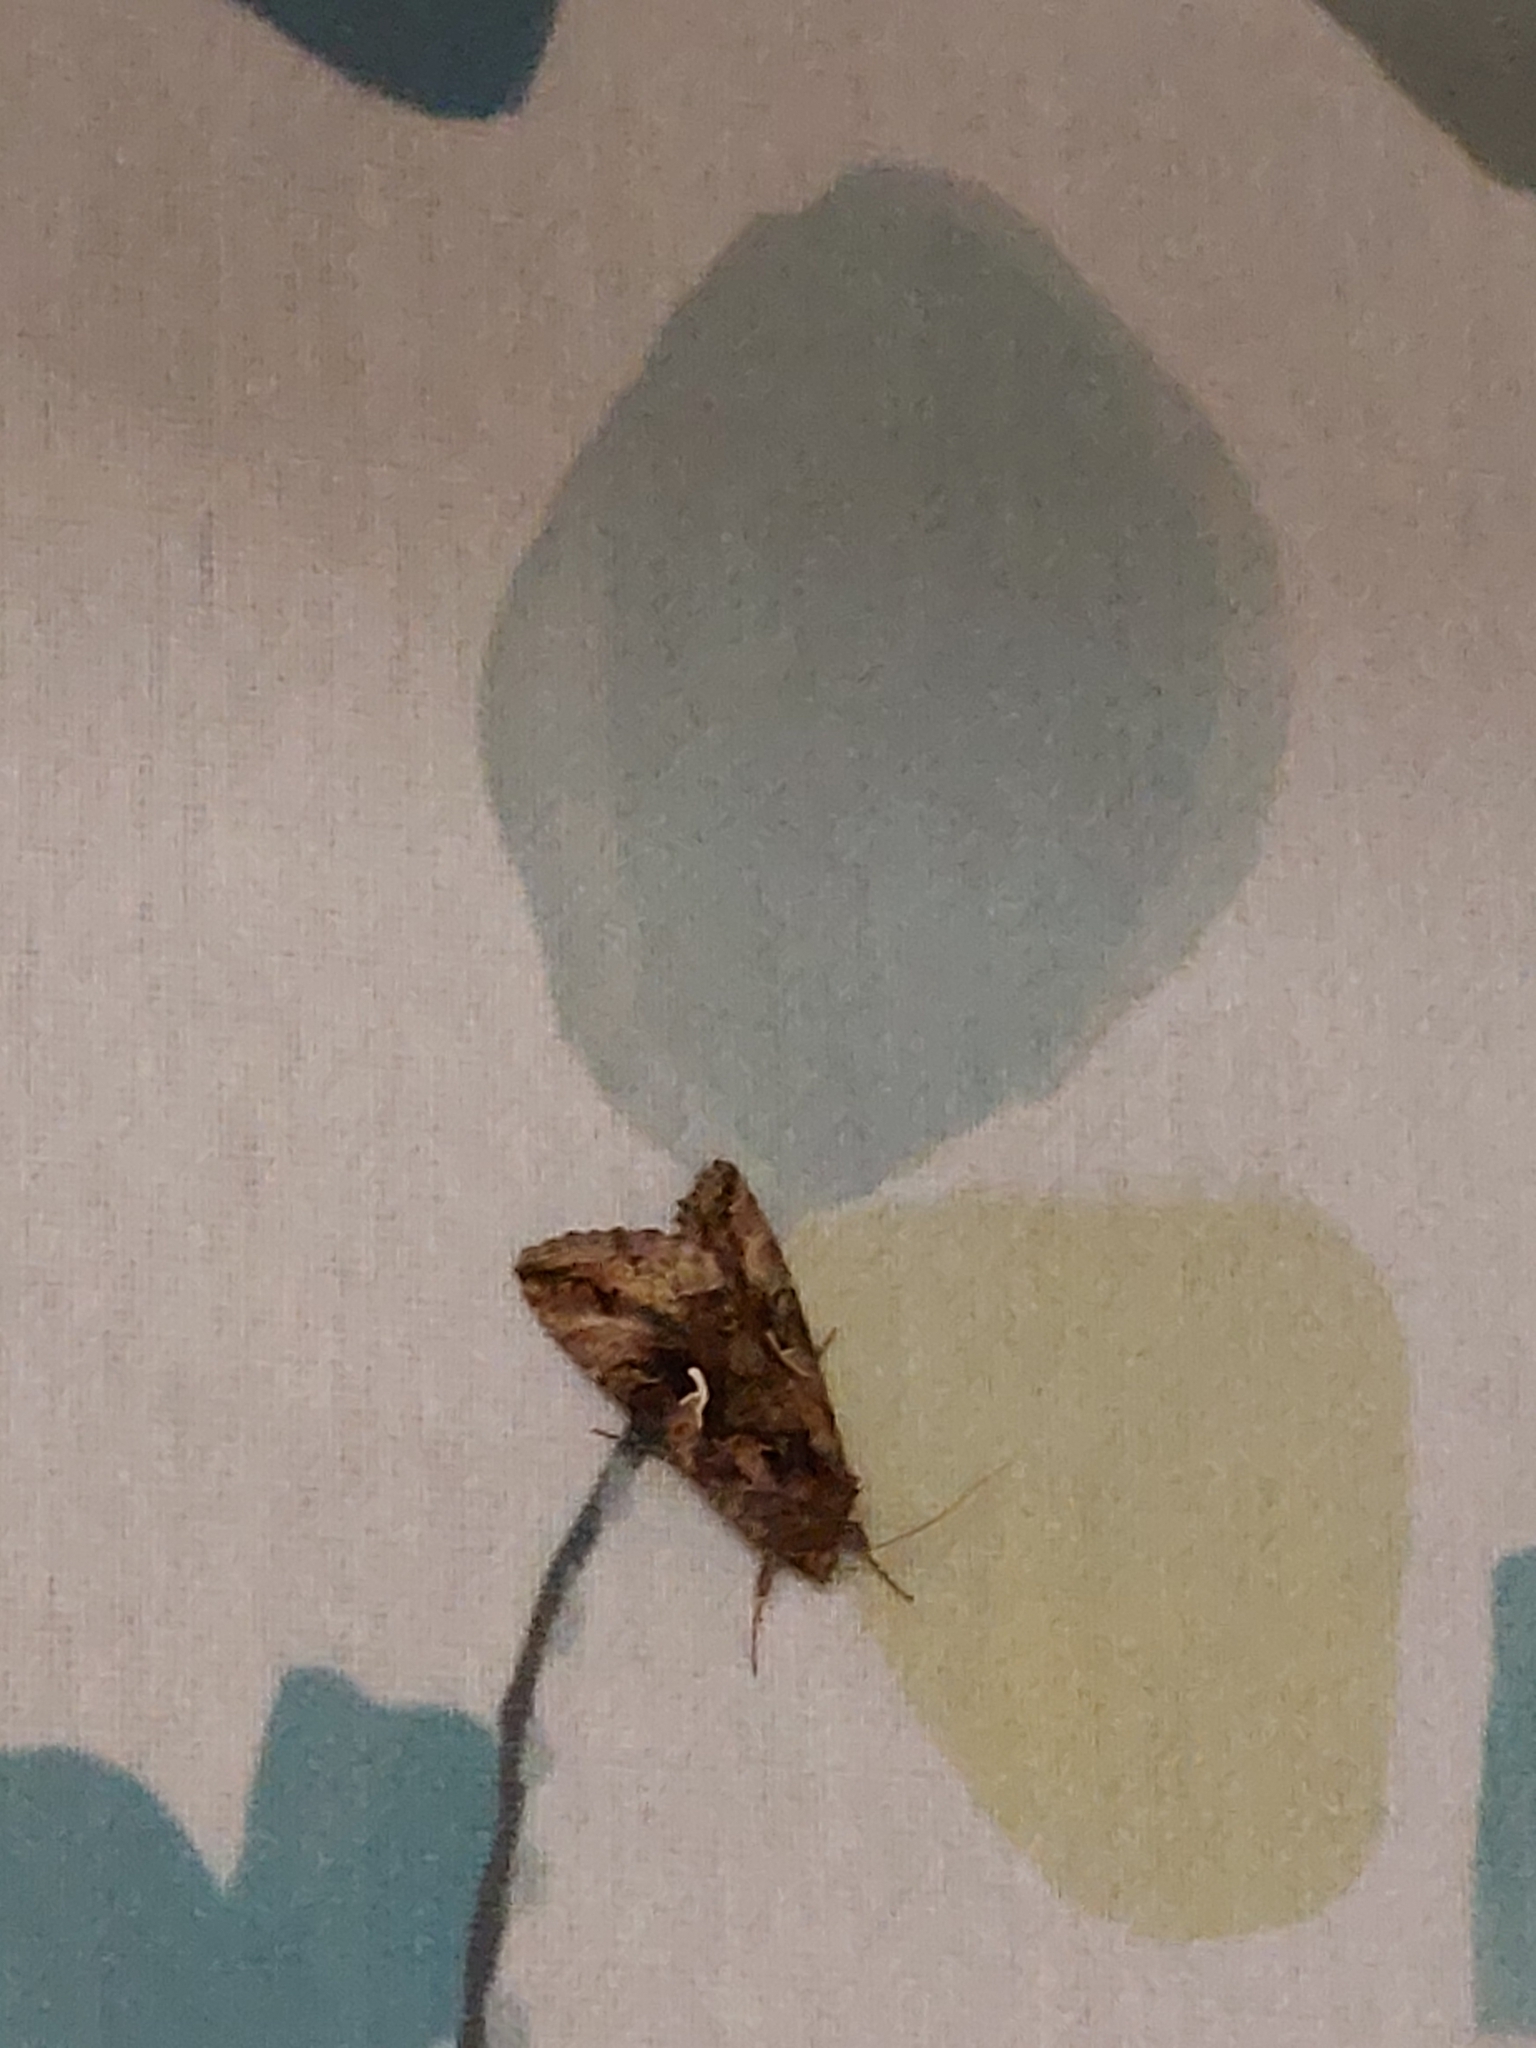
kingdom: Animalia
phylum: Arthropoda
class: Insecta
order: Lepidoptera
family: Noctuidae
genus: Autographa
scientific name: Autographa gamma
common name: Silver y
